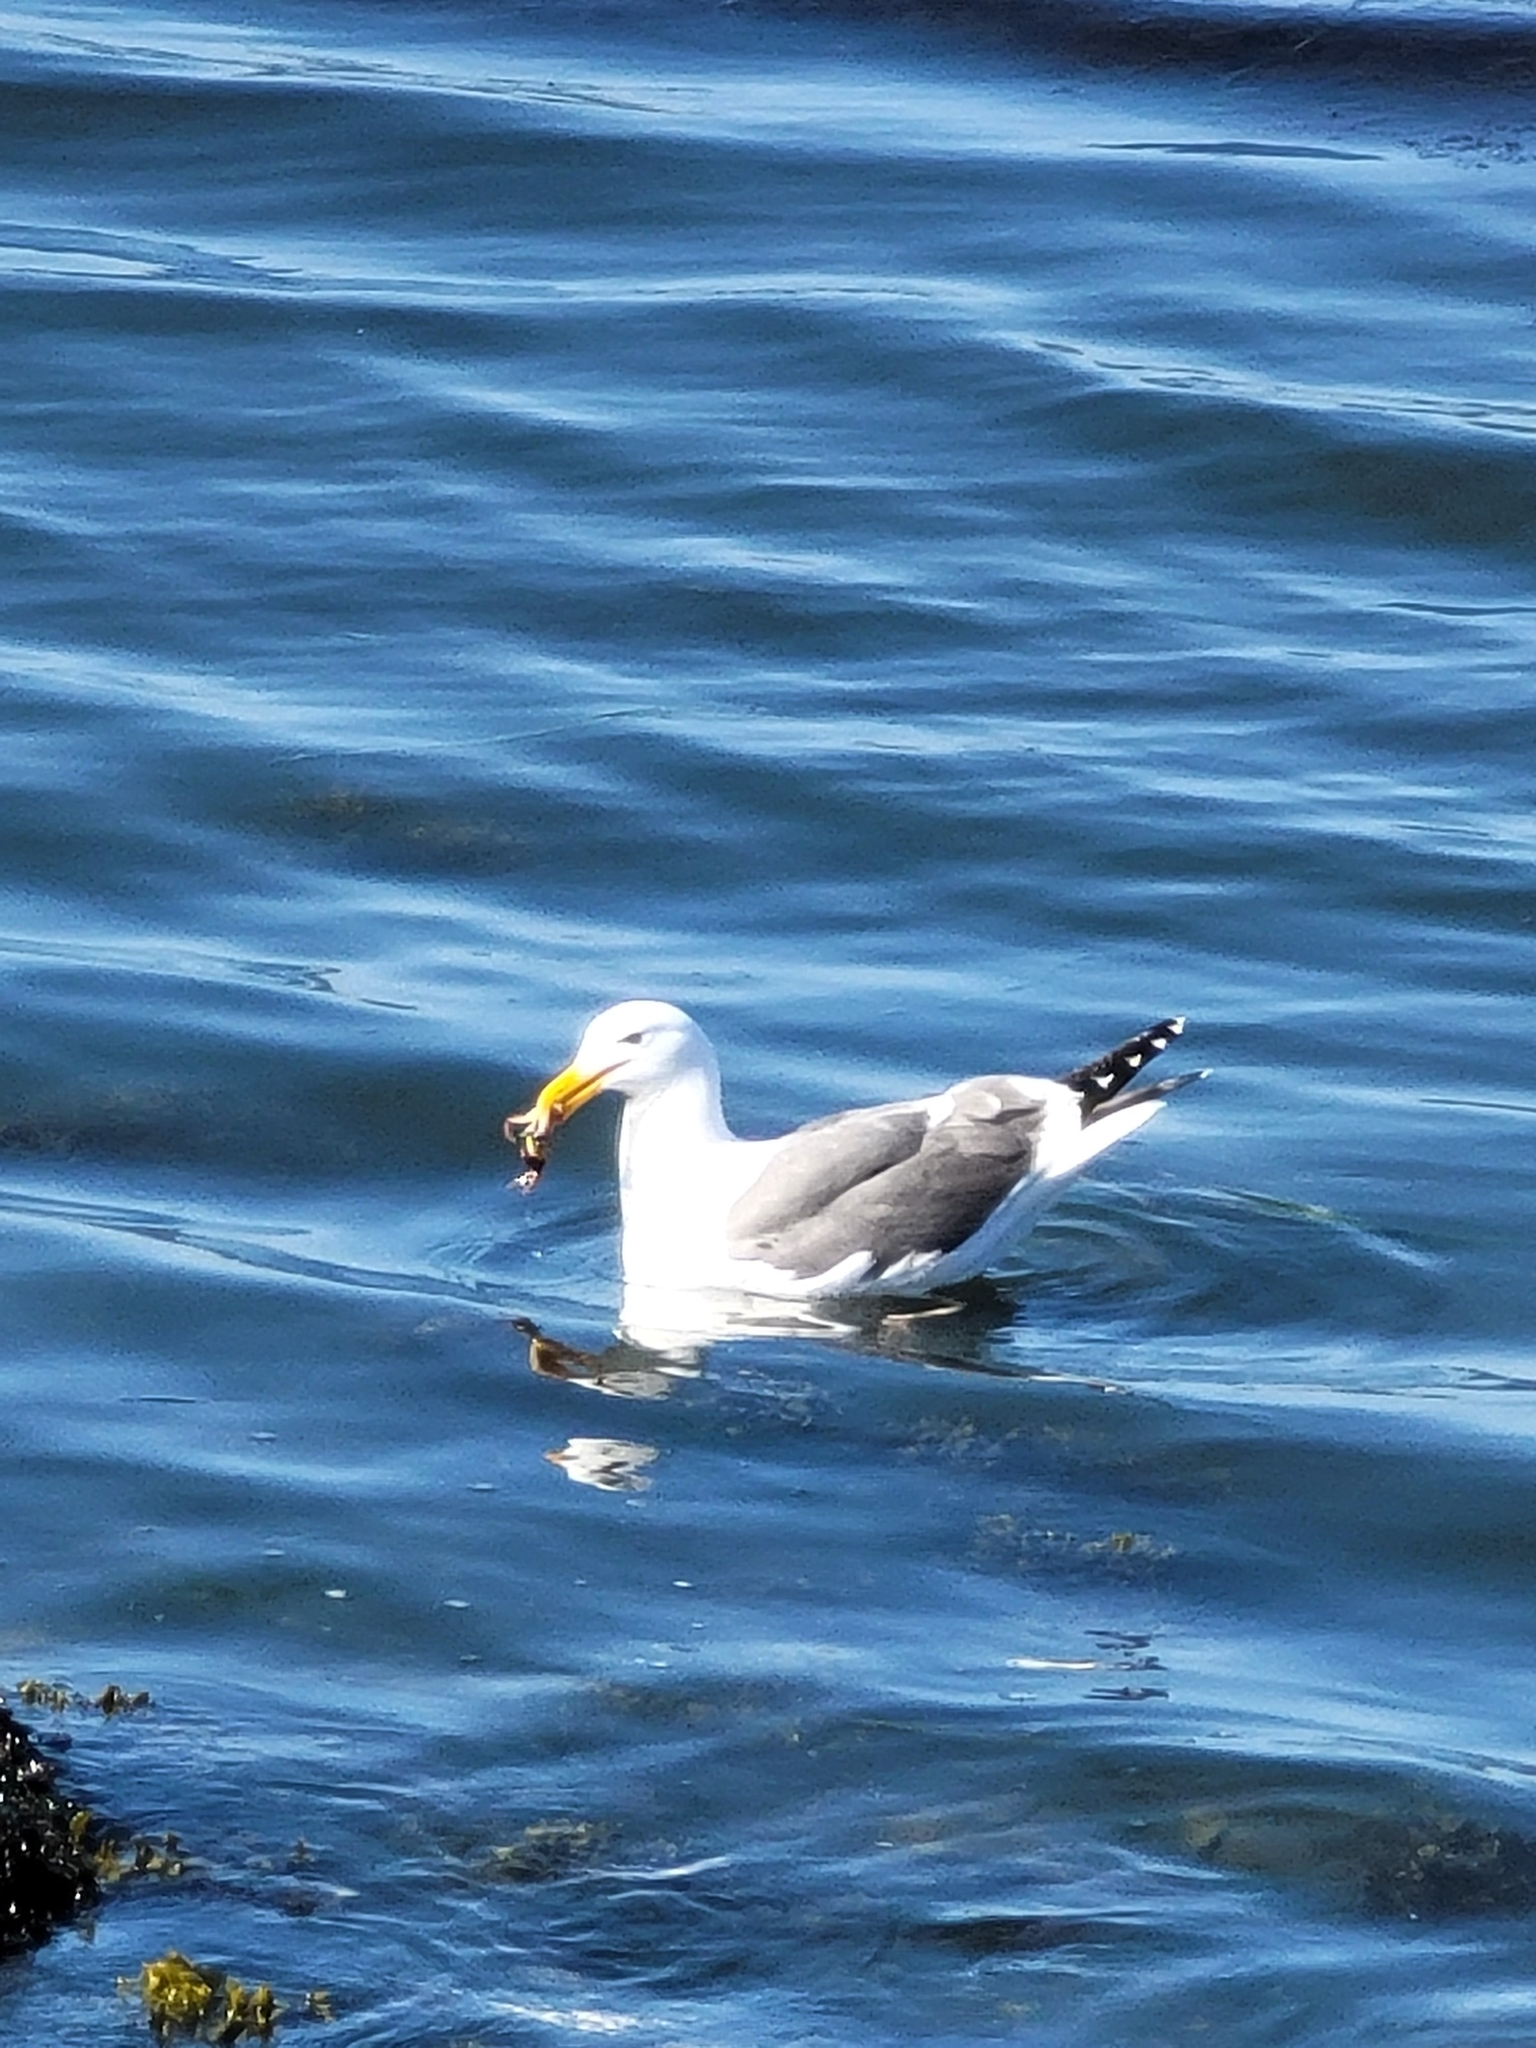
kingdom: Animalia
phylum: Chordata
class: Aves
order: Charadriiformes
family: Laridae
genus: Larus
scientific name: Larus occidentalis
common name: Western gull
